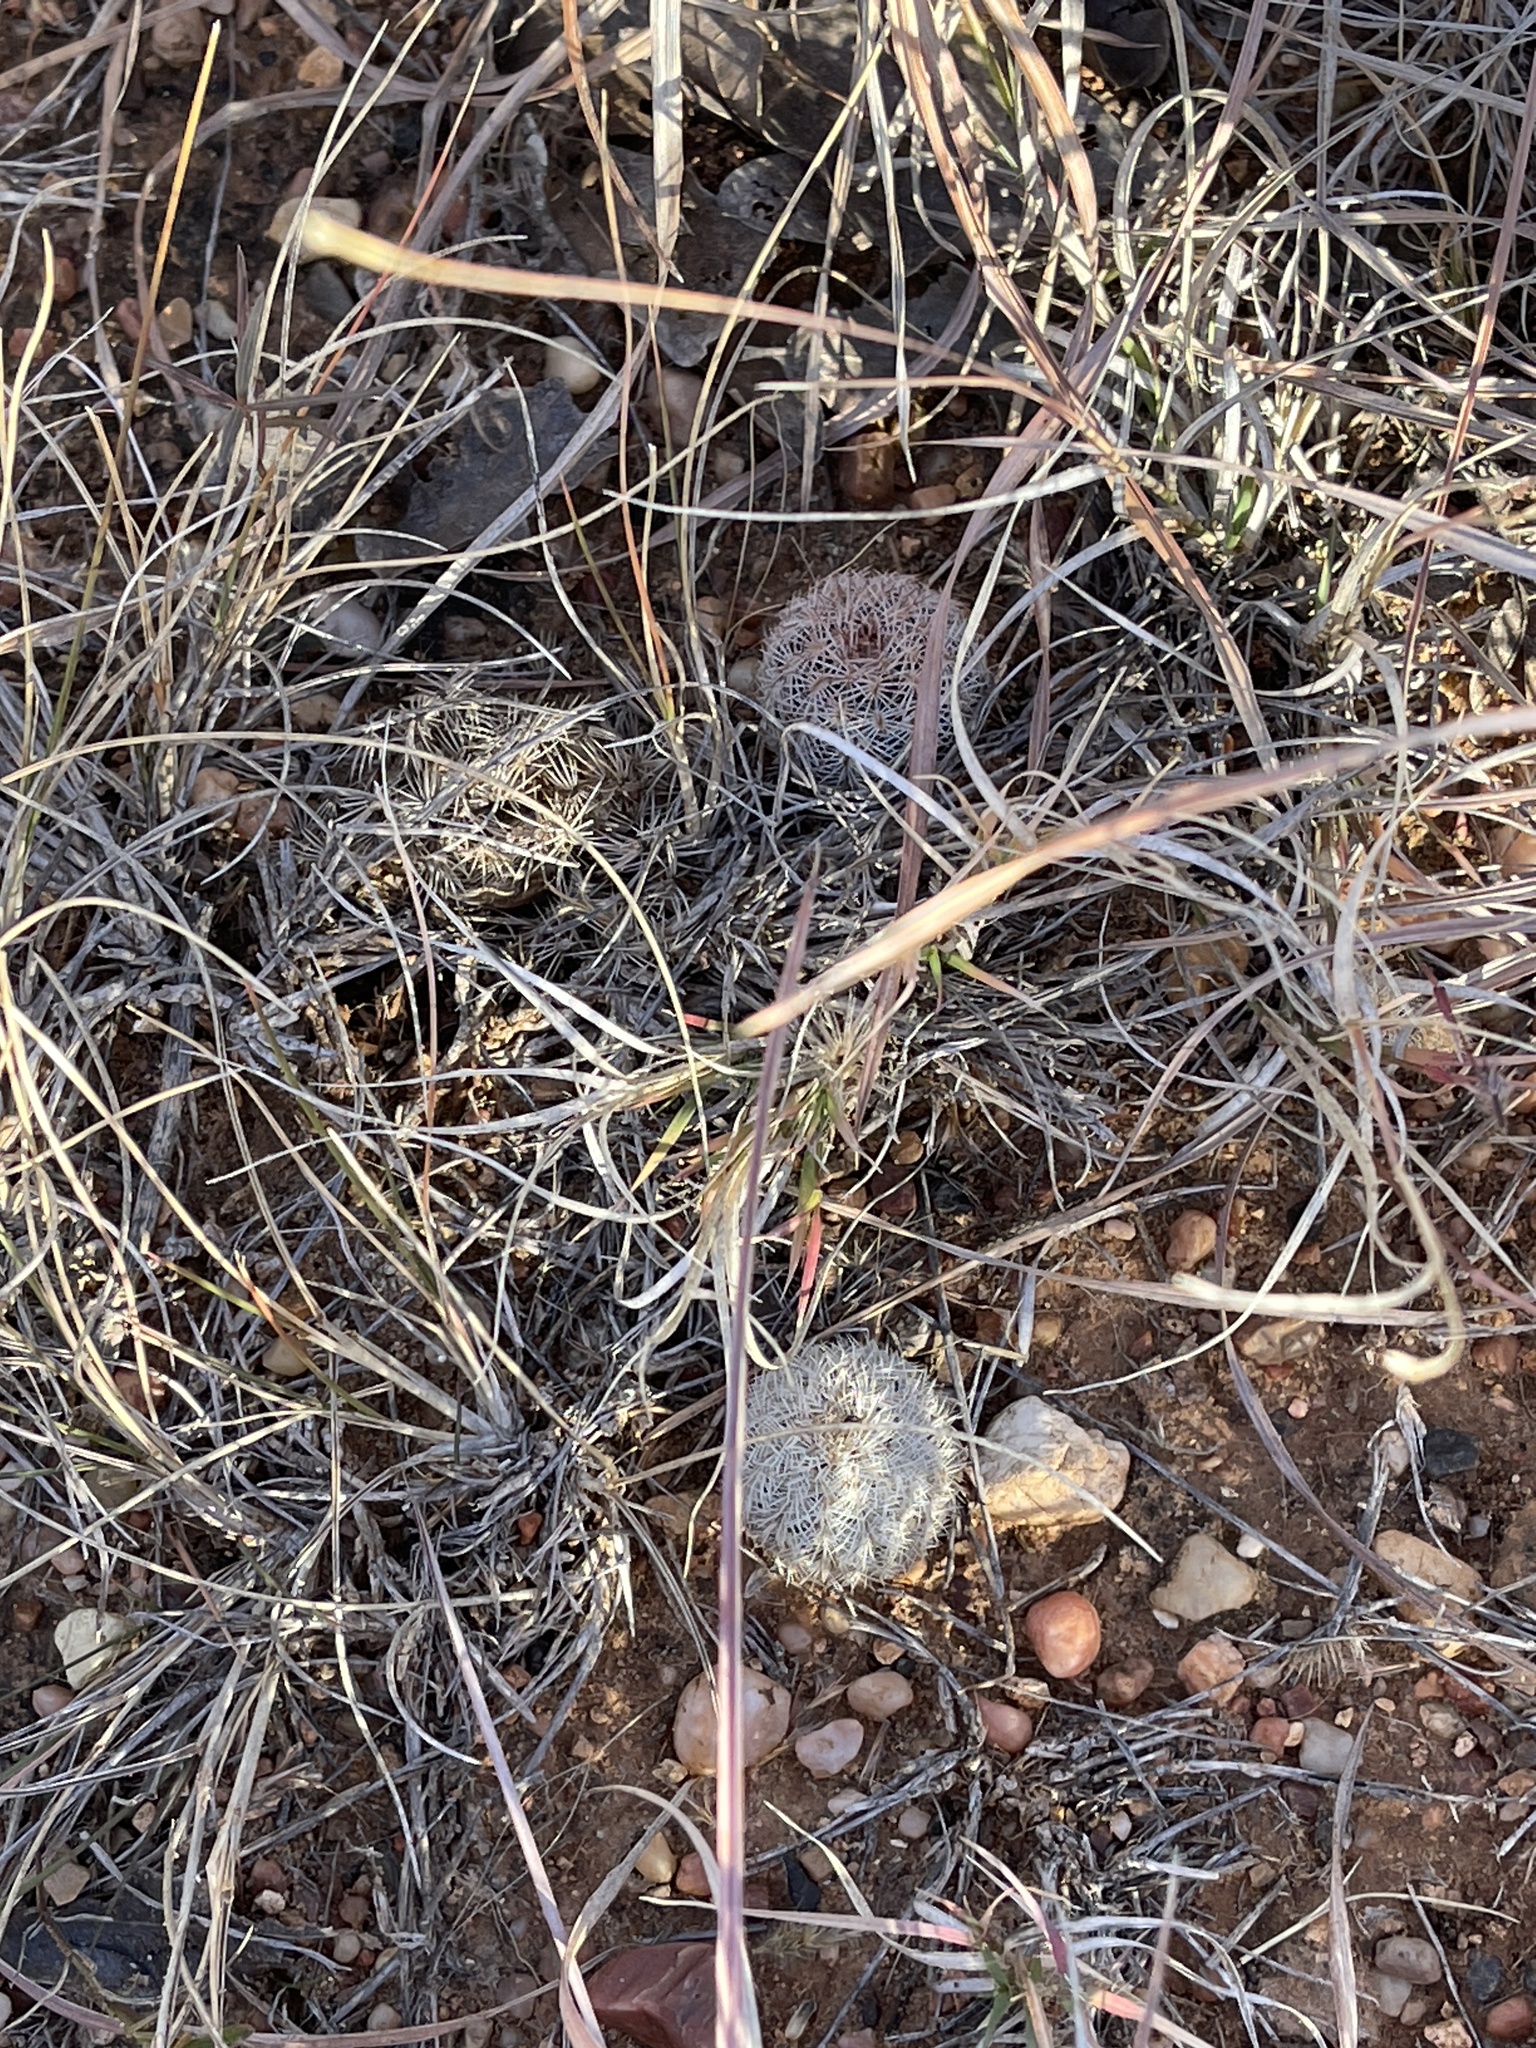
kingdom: Plantae
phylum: Tracheophyta
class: Magnoliopsida
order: Caryophyllales
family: Cactaceae
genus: Echinocereus
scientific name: Echinocereus reichenbachii
